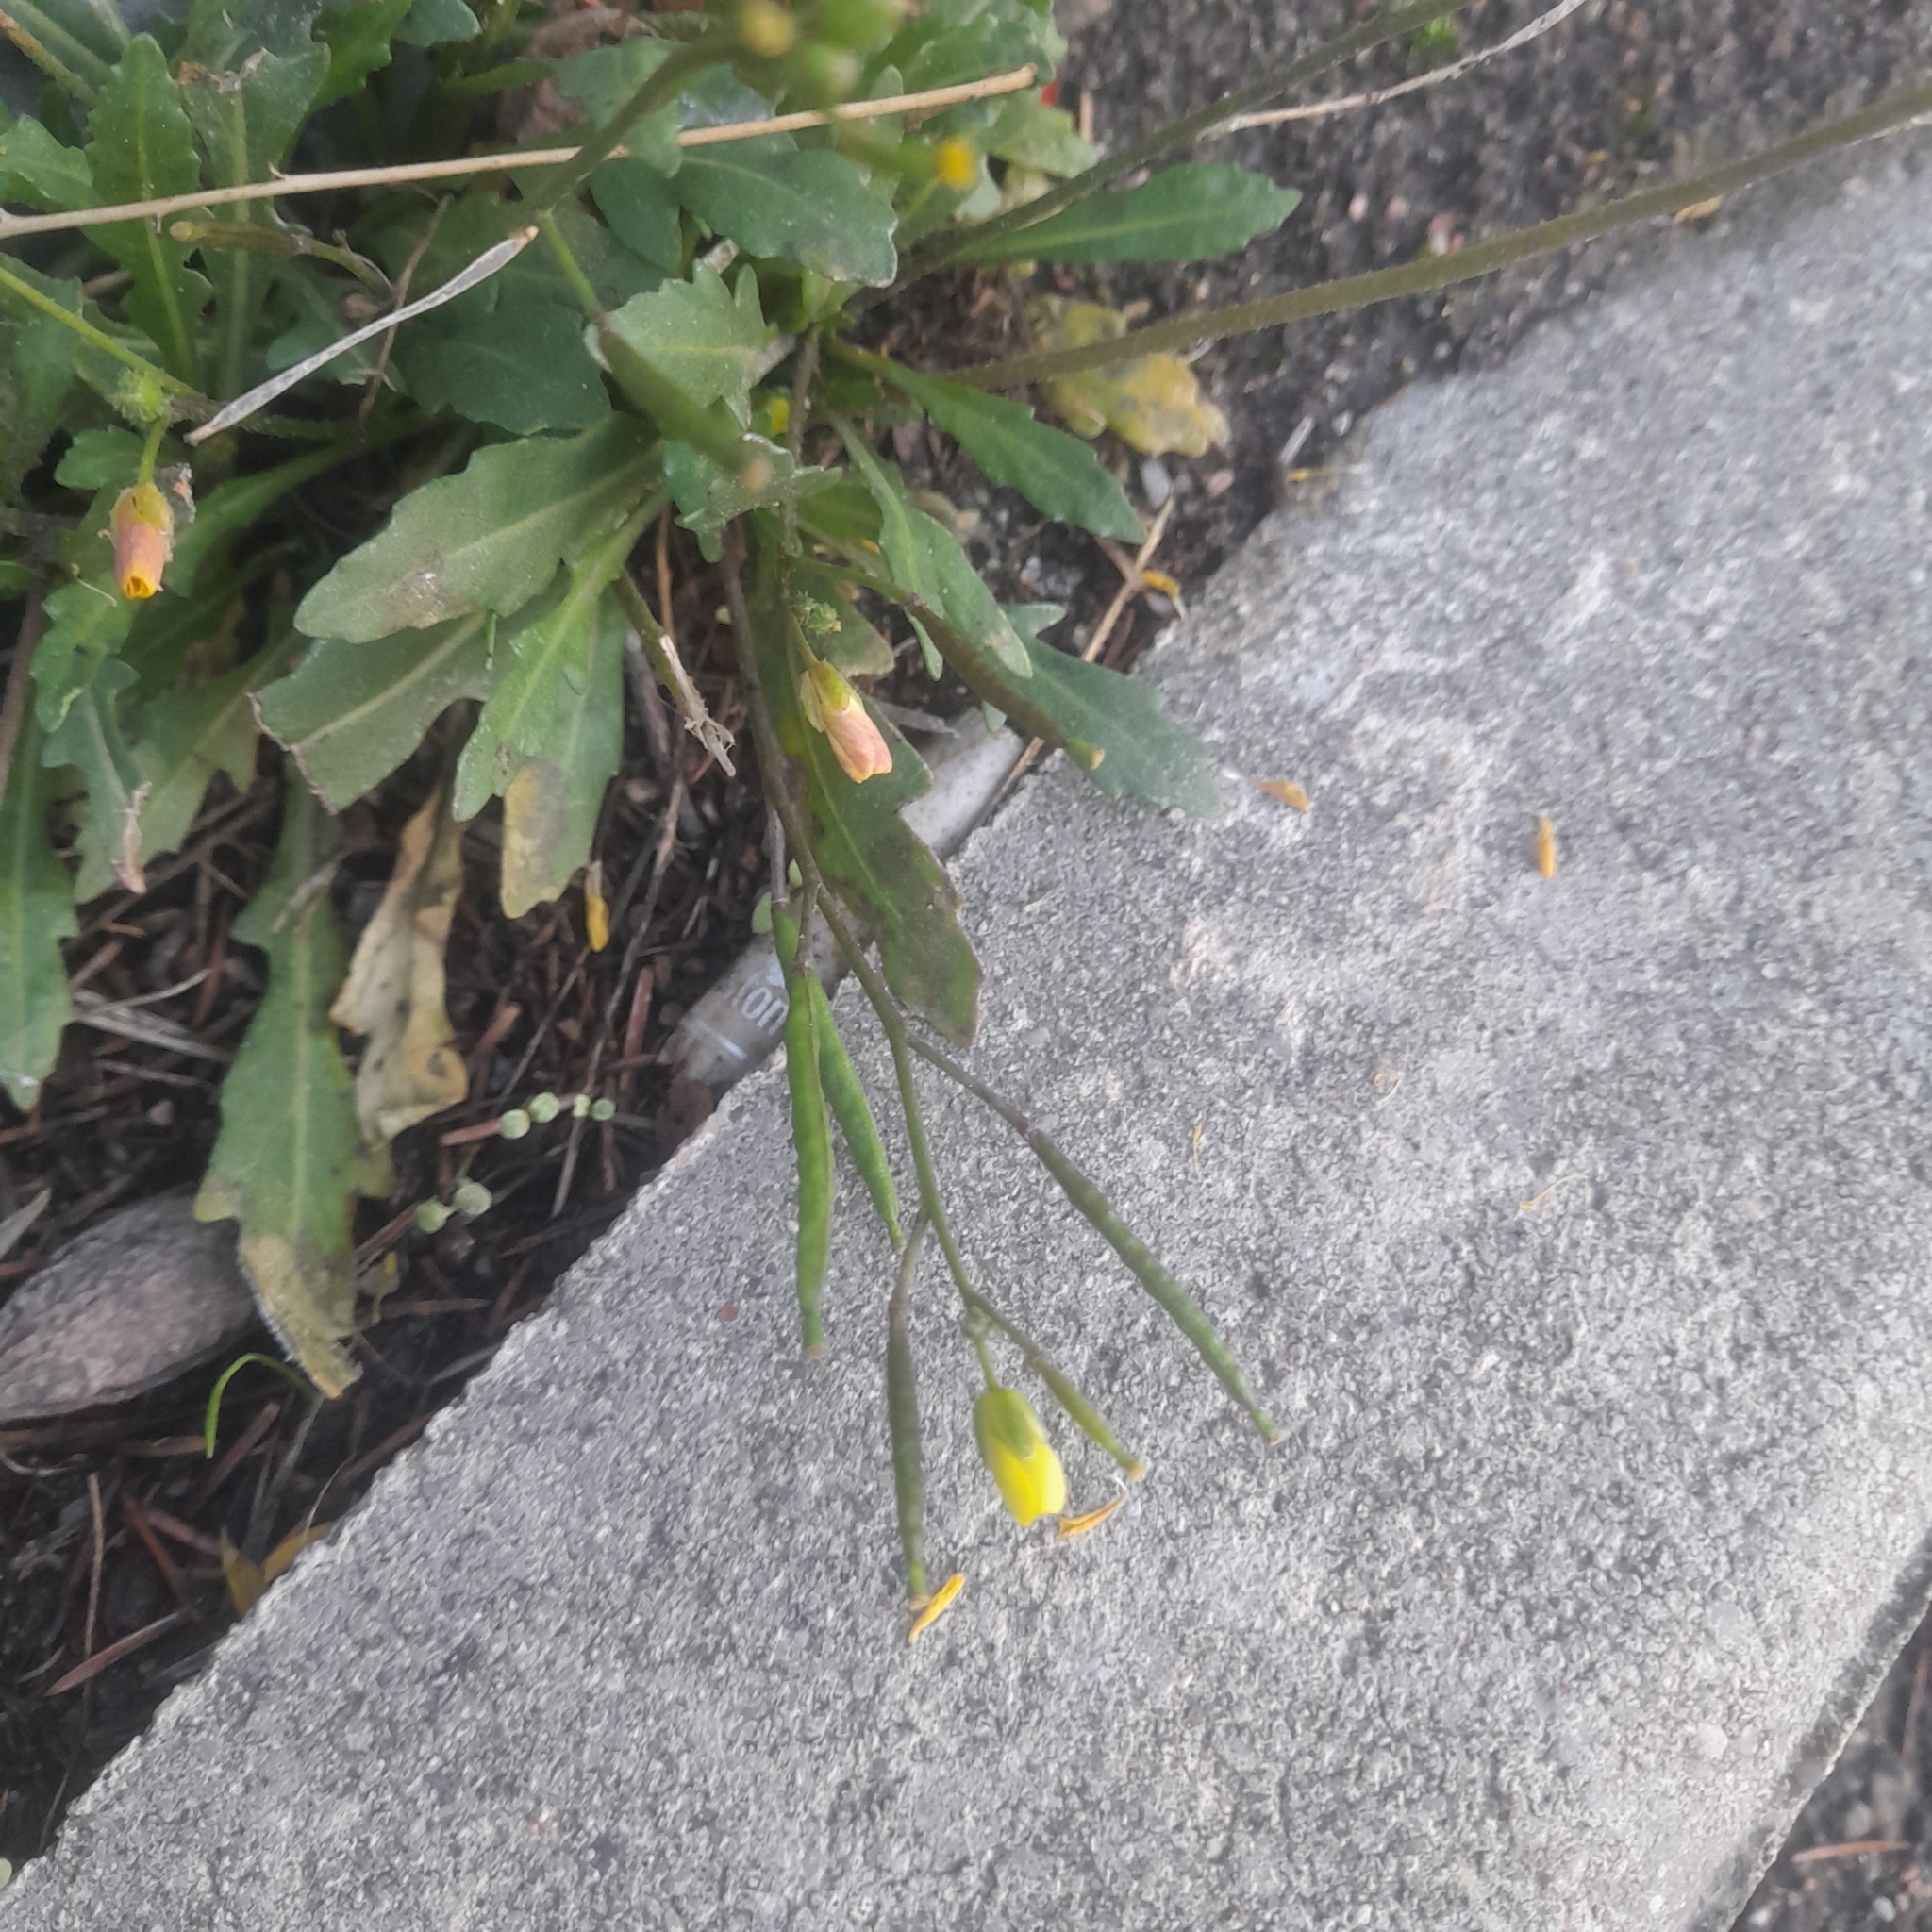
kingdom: Plantae
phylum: Tracheophyta
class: Magnoliopsida
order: Brassicales
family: Brassicaceae
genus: Diplotaxis
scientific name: Diplotaxis muralis
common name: Annual wall-rocket
